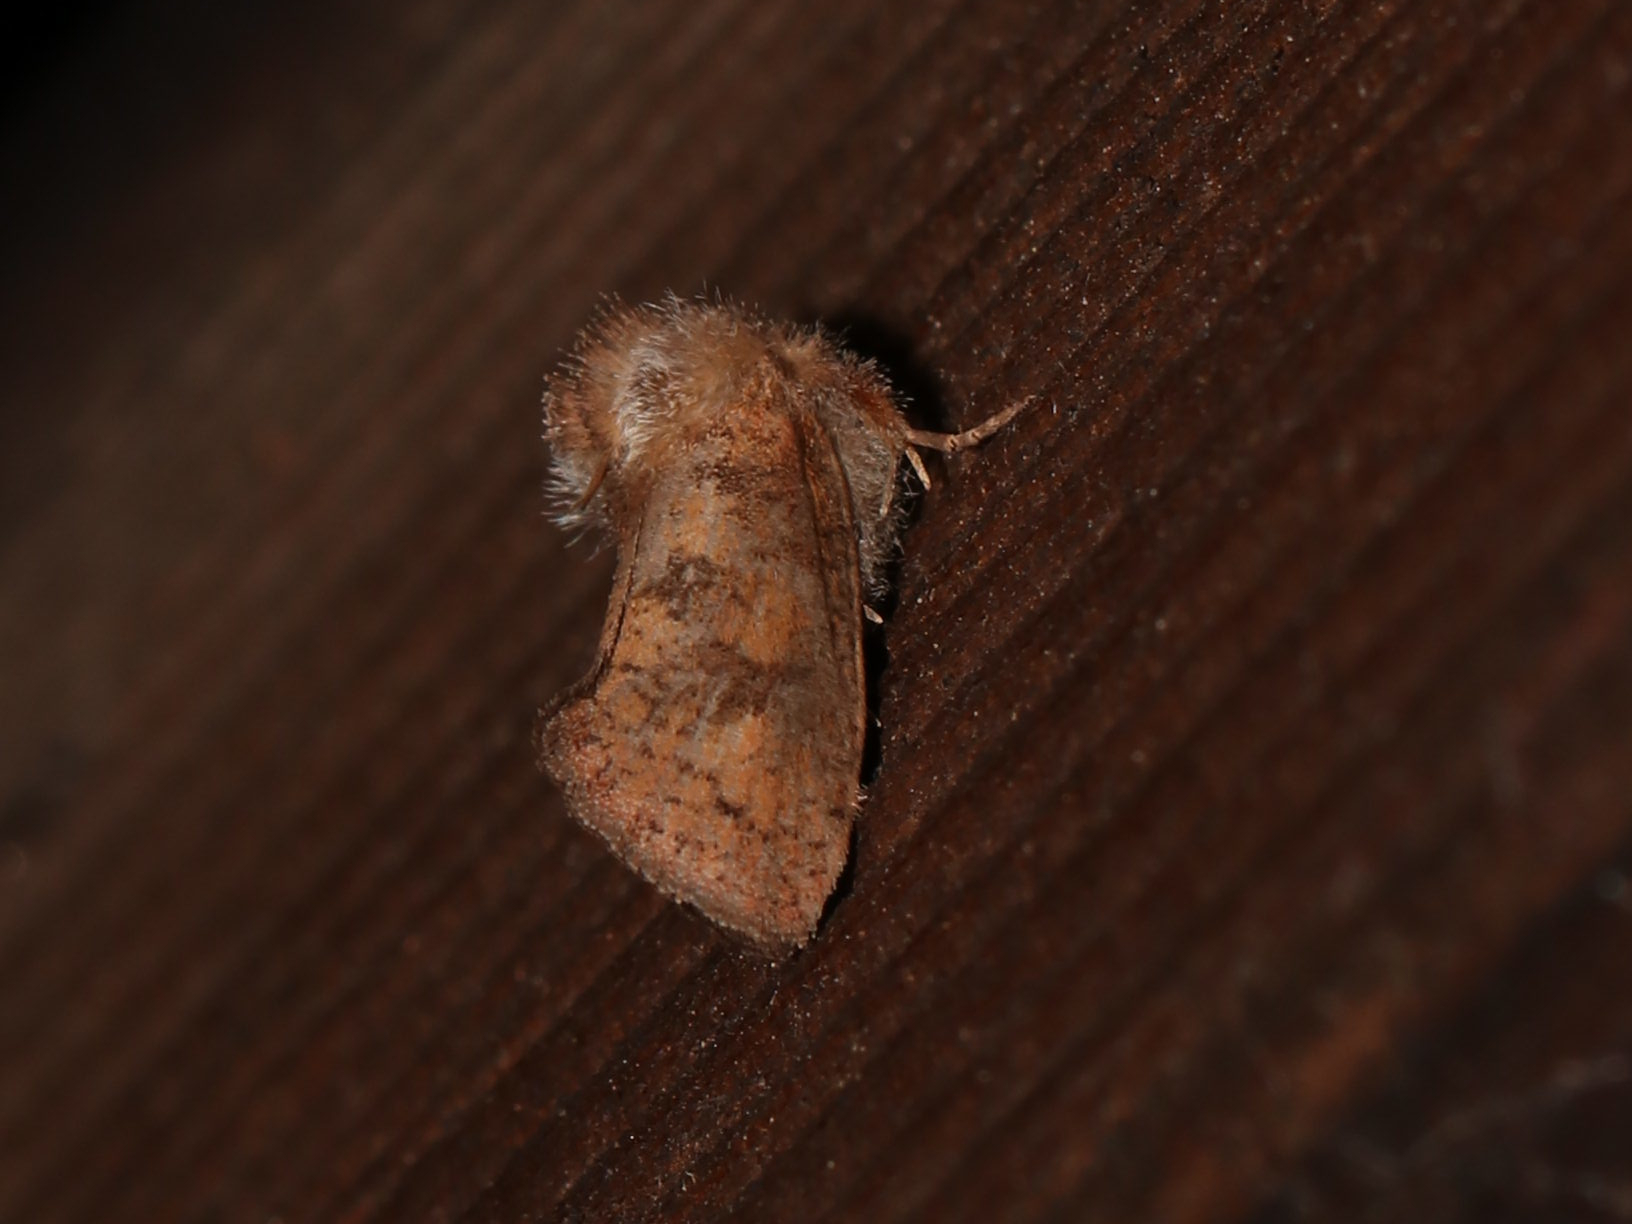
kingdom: Animalia
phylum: Arthropoda
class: Insecta
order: Lepidoptera
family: Tineidae
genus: Acrolophus
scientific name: Acrolophus plumifrontella
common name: Eastern grass tubeworm moth
